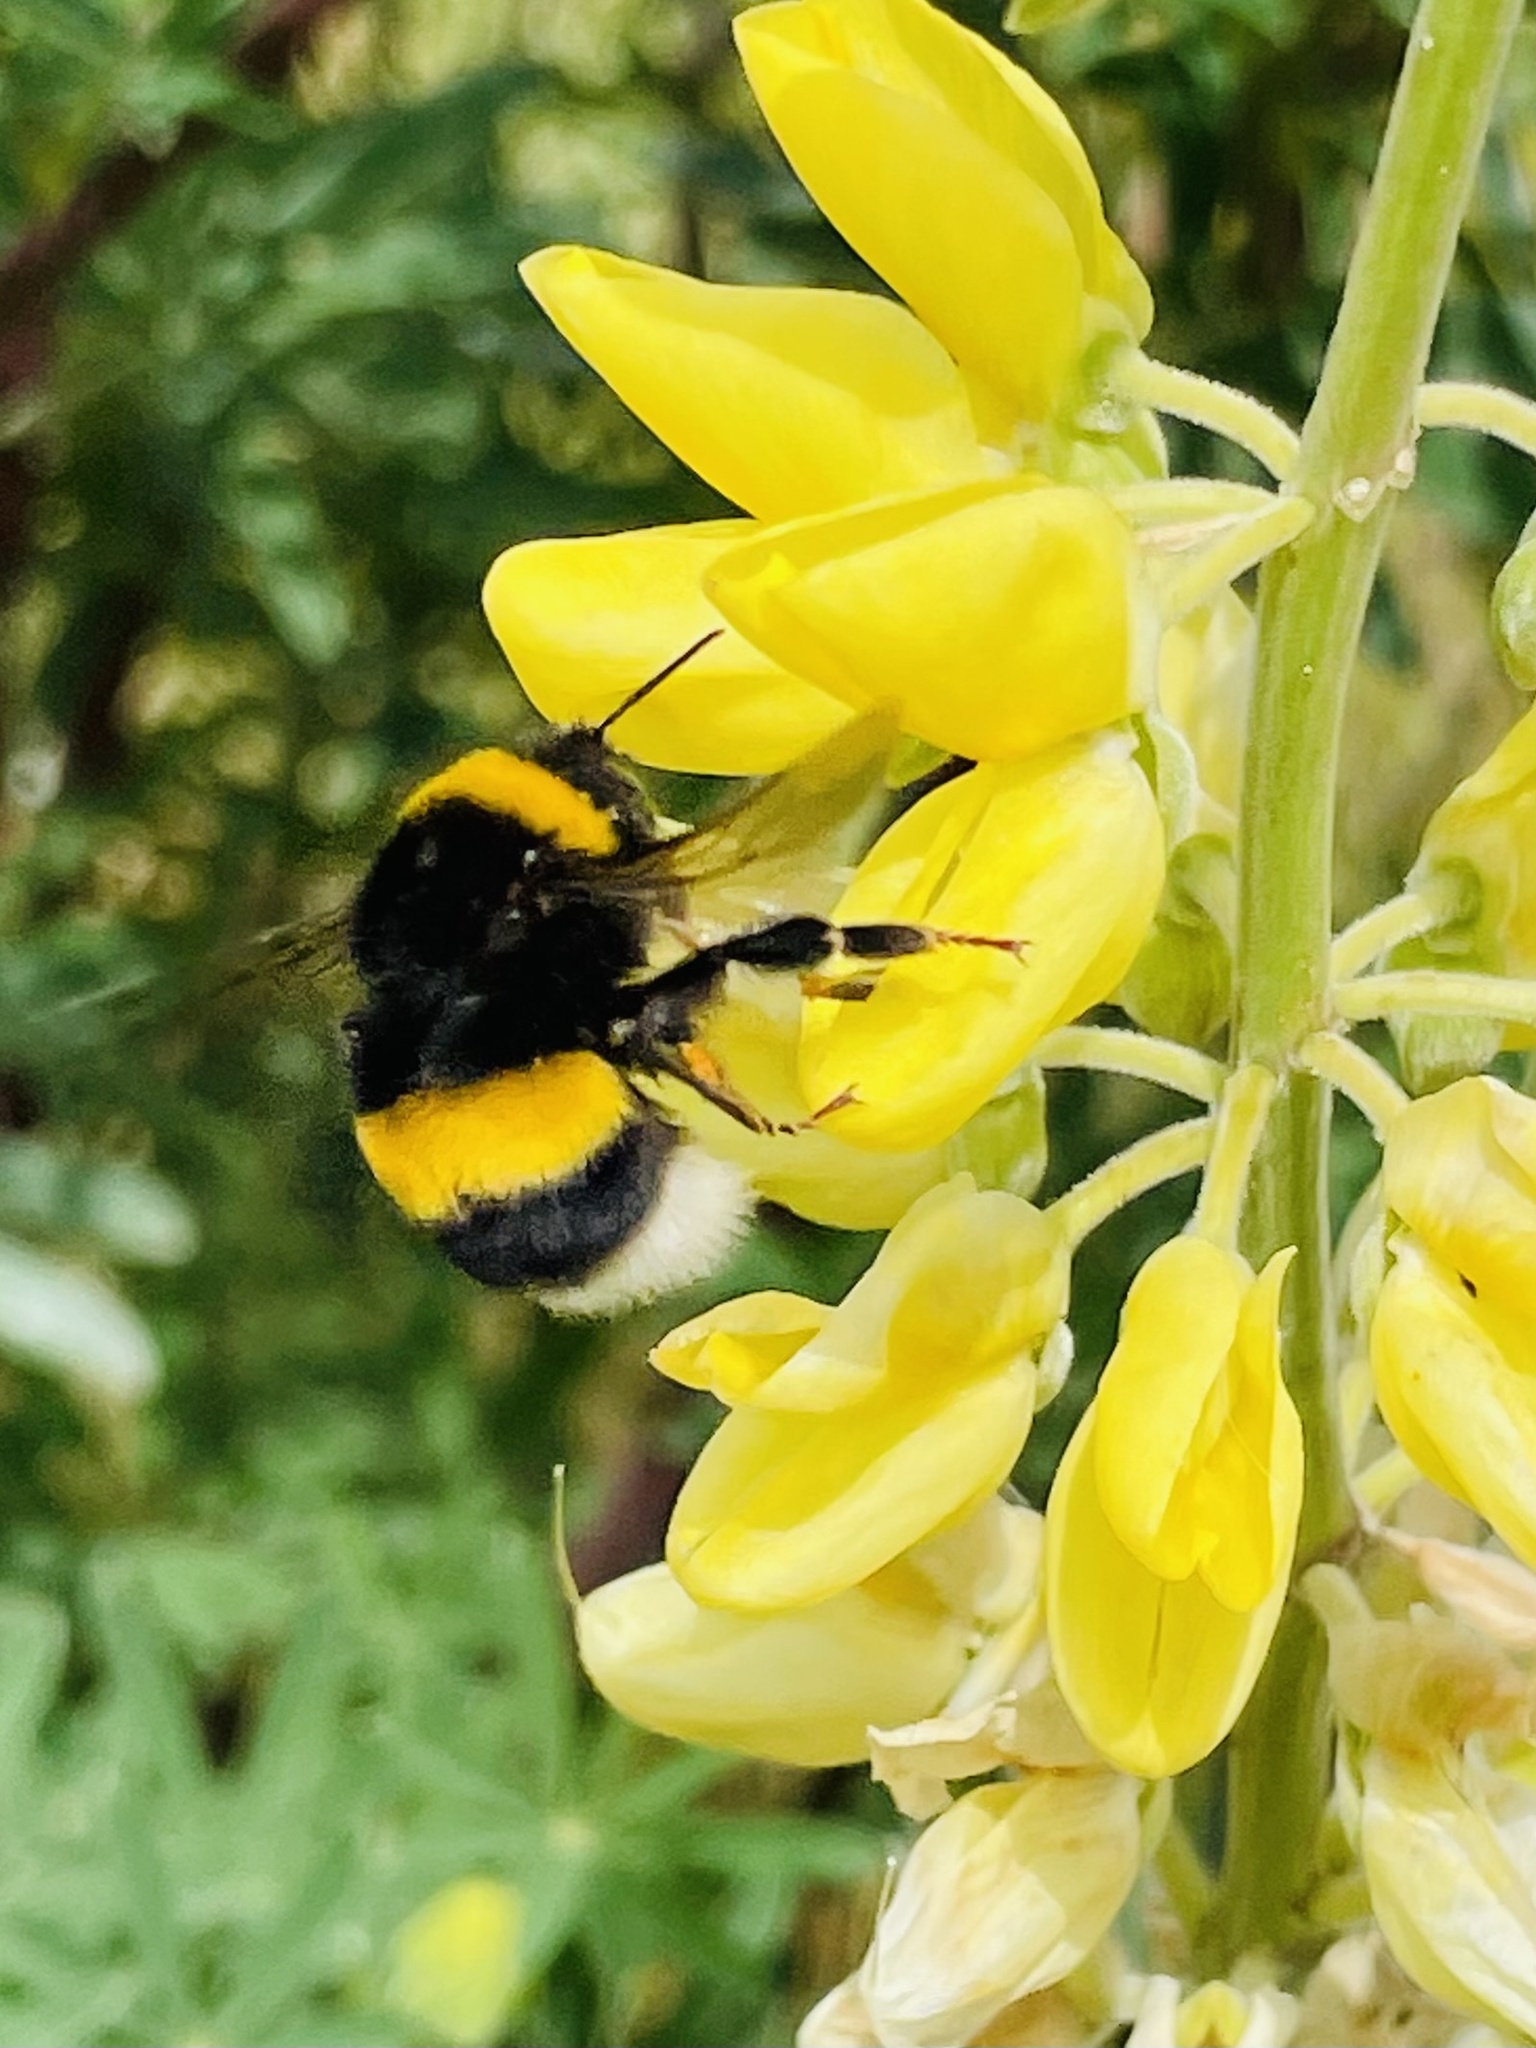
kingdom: Animalia
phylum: Arthropoda
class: Insecta
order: Hymenoptera
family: Apidae
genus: Bombus
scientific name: Bombus terrestris
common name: Buff-tailed bumblebee
